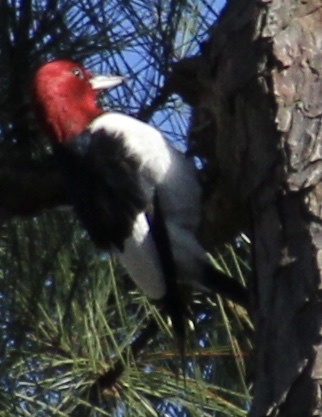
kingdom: Animalia
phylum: Chordata
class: Aves
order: Piciformes
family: Picidae
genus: Melanerpes
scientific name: Melanerpes erythrocephalus
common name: Red-headed woodpecker
